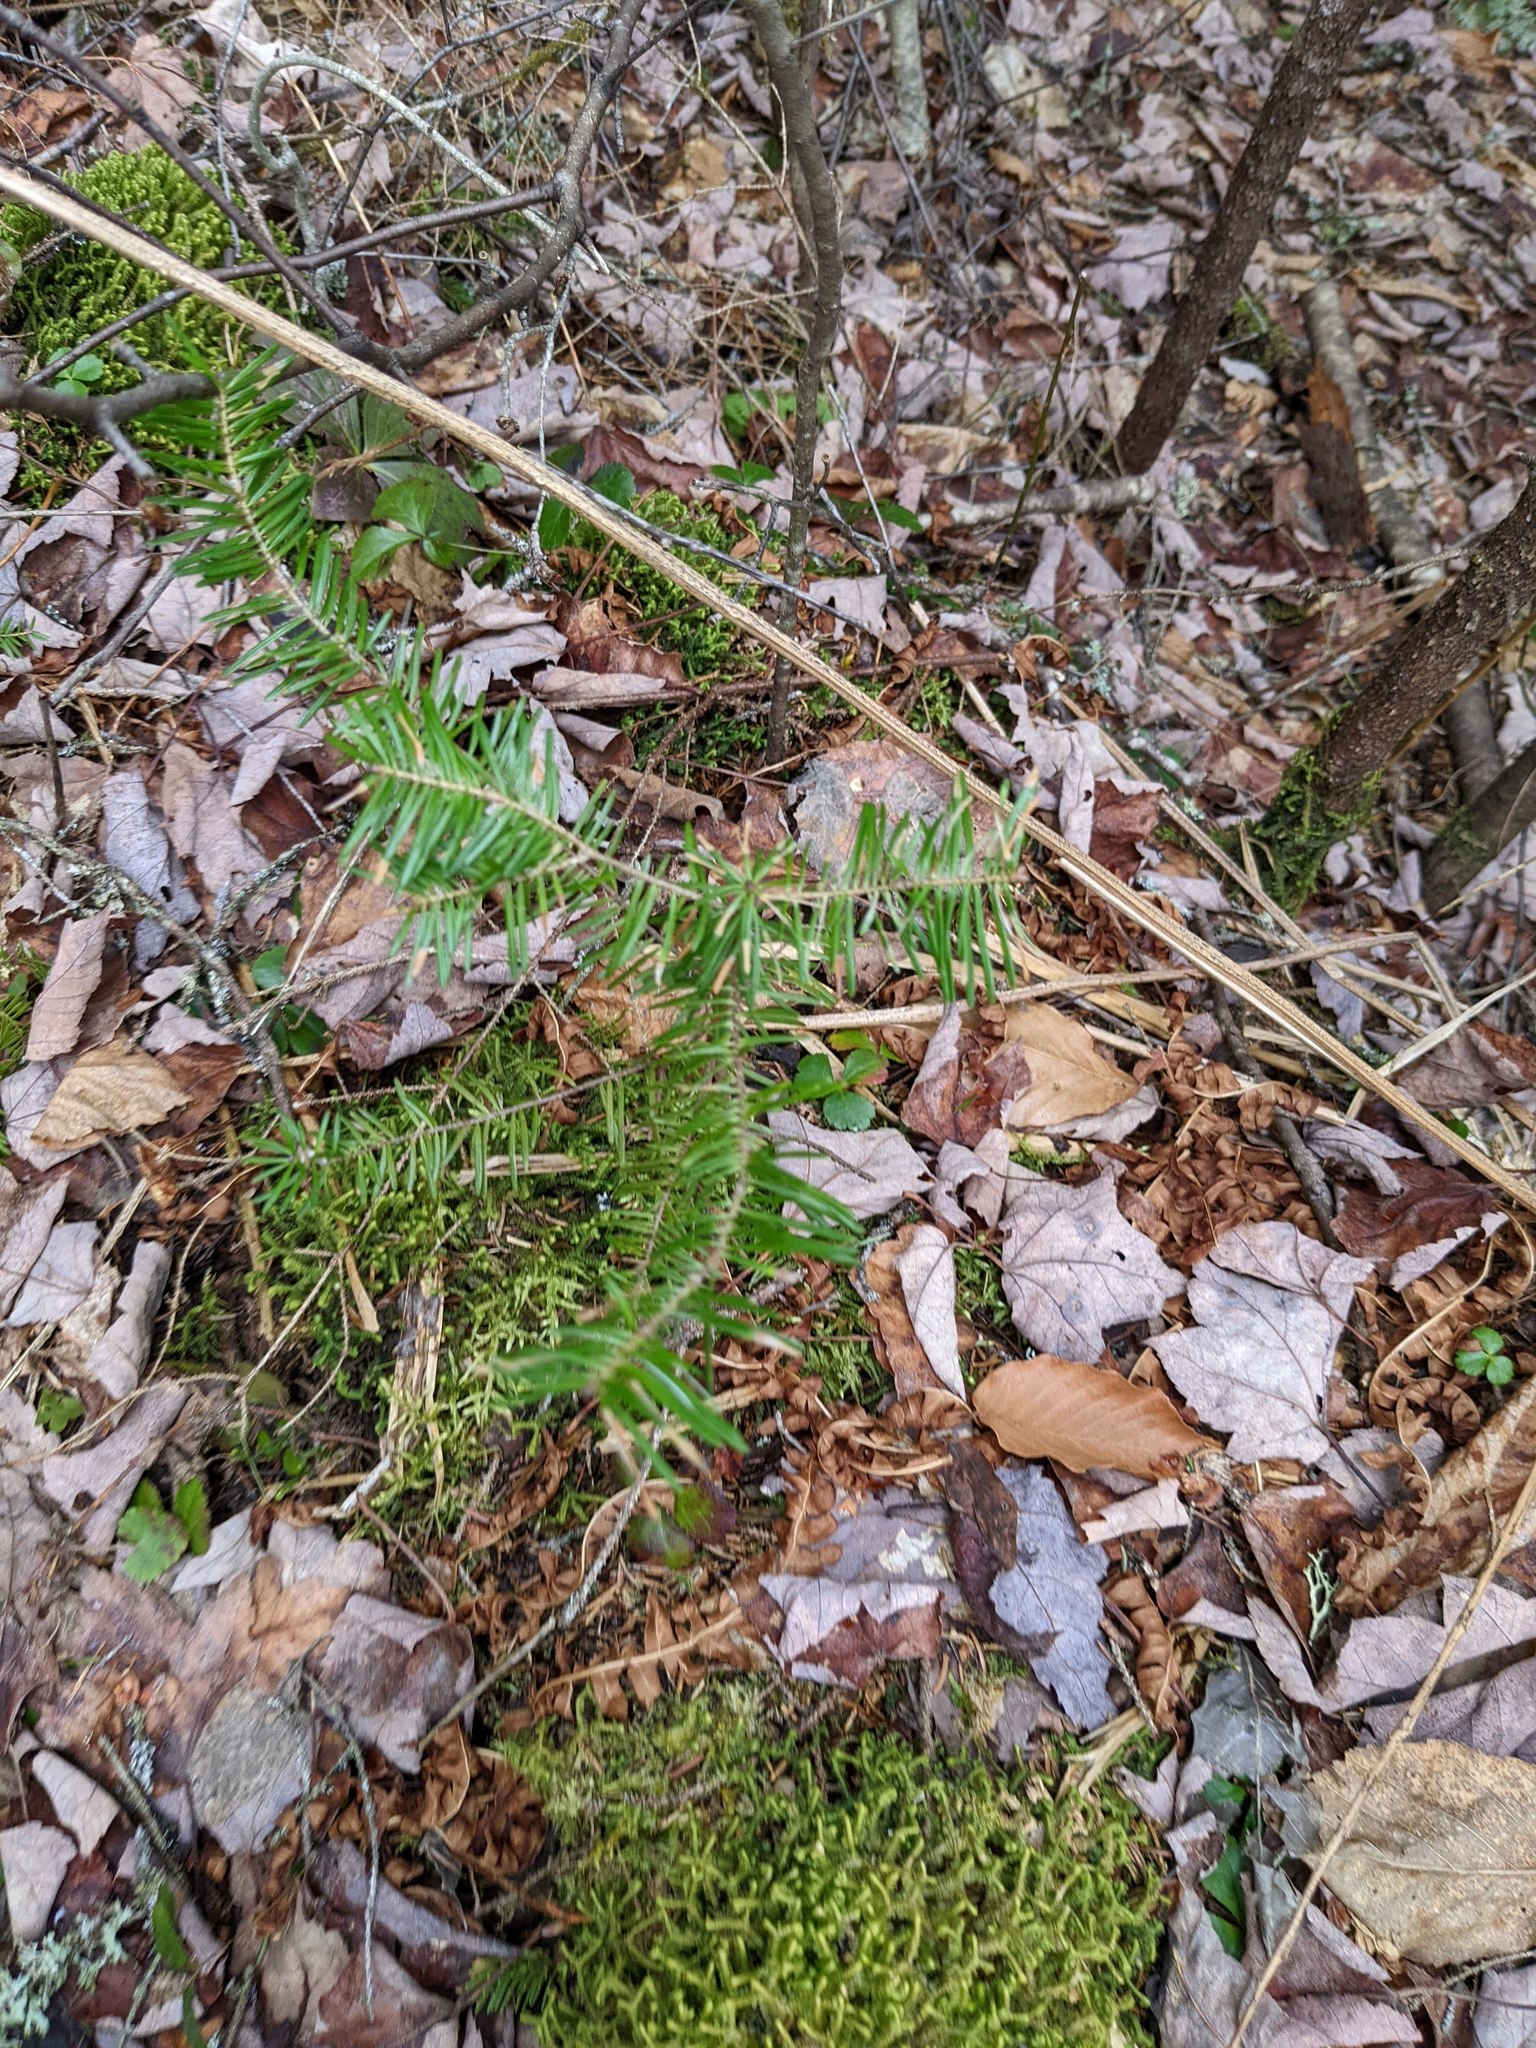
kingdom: Plantae
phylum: Tracheophyta
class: Pinopsida
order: Pinales
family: Pinaceae
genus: Abies
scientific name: Abies balsamea
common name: Balsam fir
